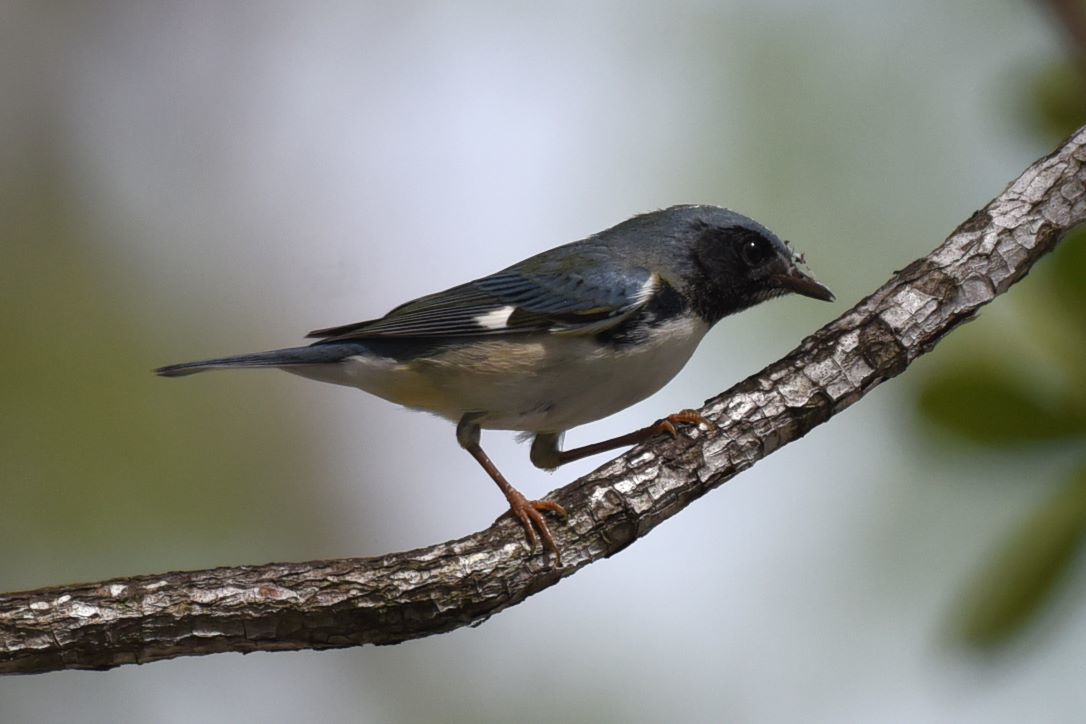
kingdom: Animalia
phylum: Chordata
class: Aves
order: Passeriformes
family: Parulidae
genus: Setophaga
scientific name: Setophaga caerulescens
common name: Black-throated blue warbler
